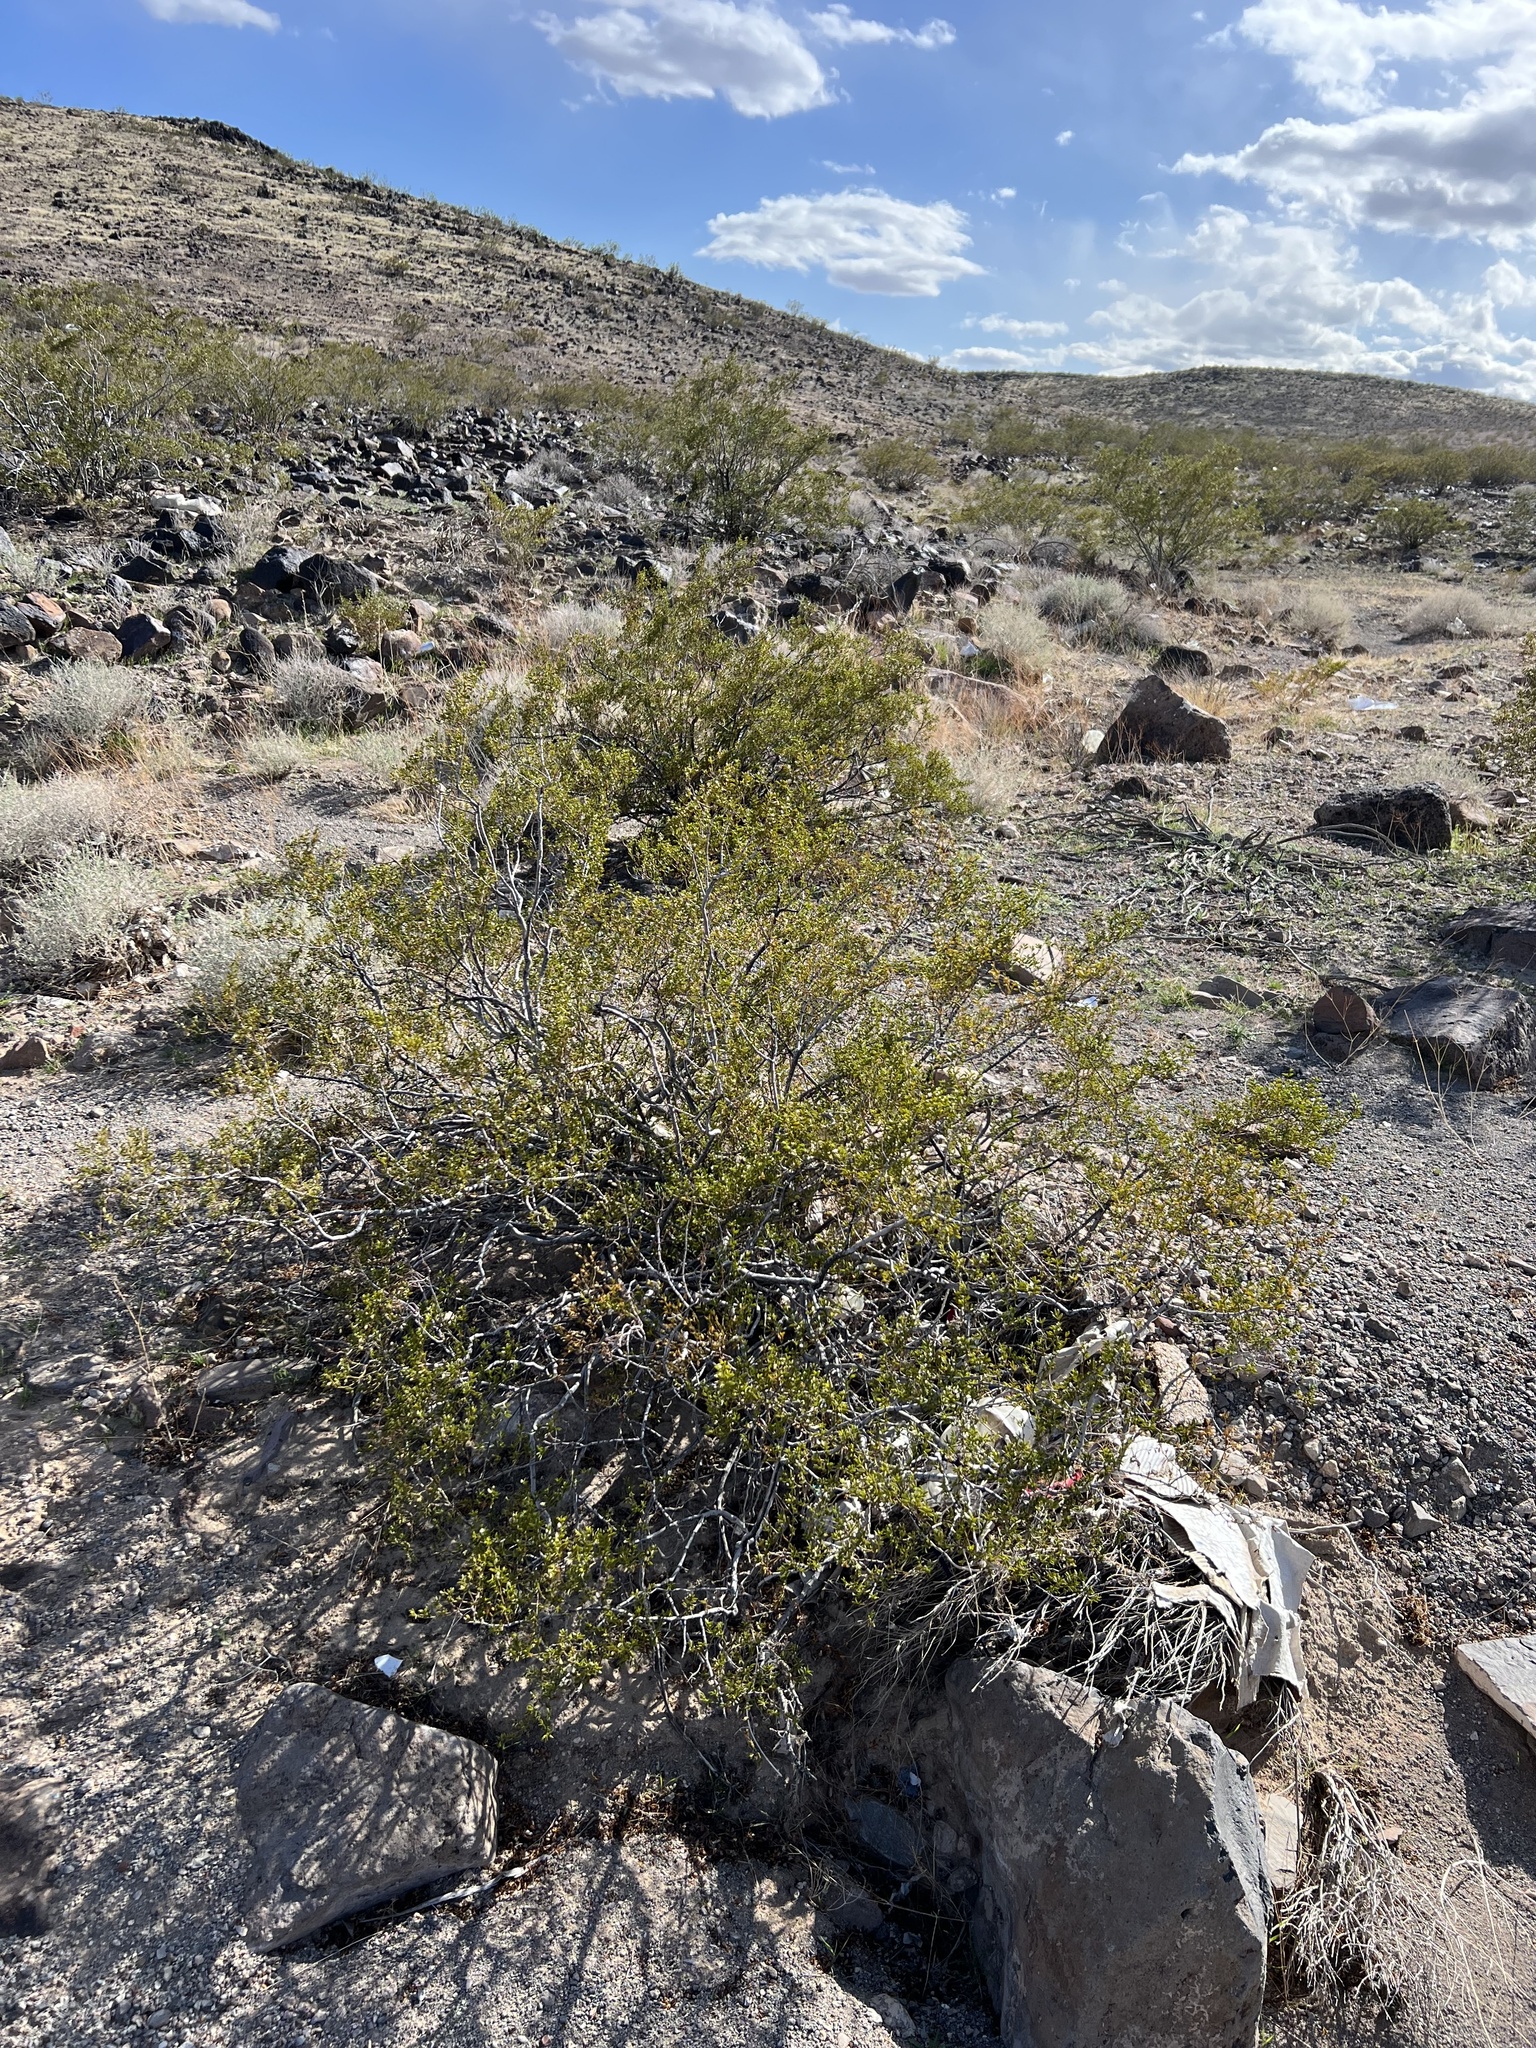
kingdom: Plantae
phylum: Tracheophyta
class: Magnoliopsida
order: Zygophyllales
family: Zygophyllaceae
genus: Larrea
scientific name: Larrea tridentata
